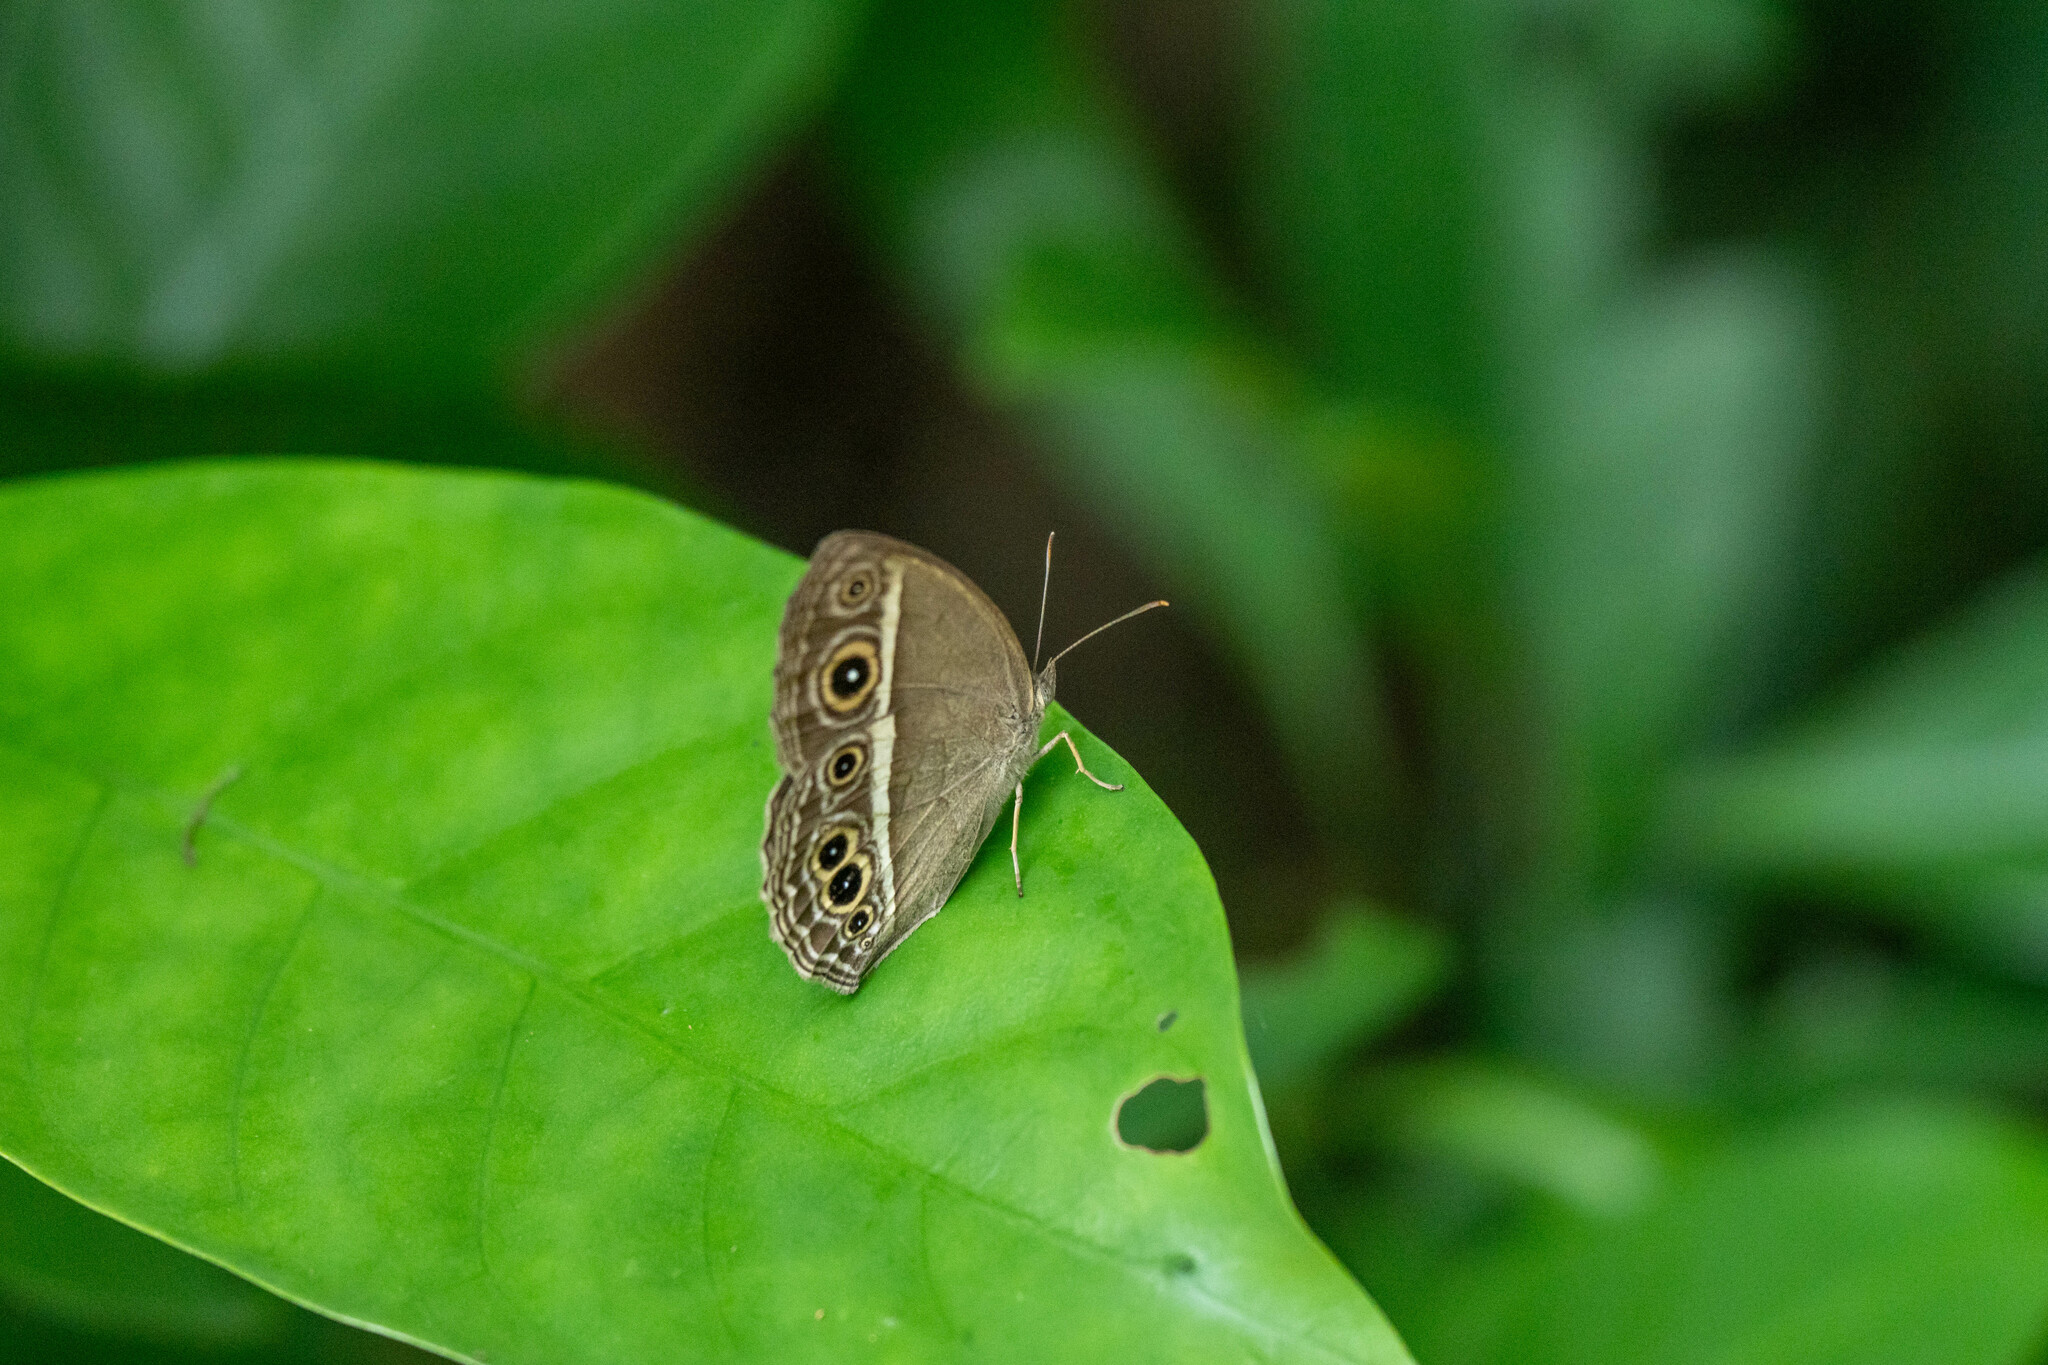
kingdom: Animalia
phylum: Arthropoda
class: Insecta
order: Lepidoptera
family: Nymphalidae
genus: Mycalesis
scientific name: Mycalesis mineus
